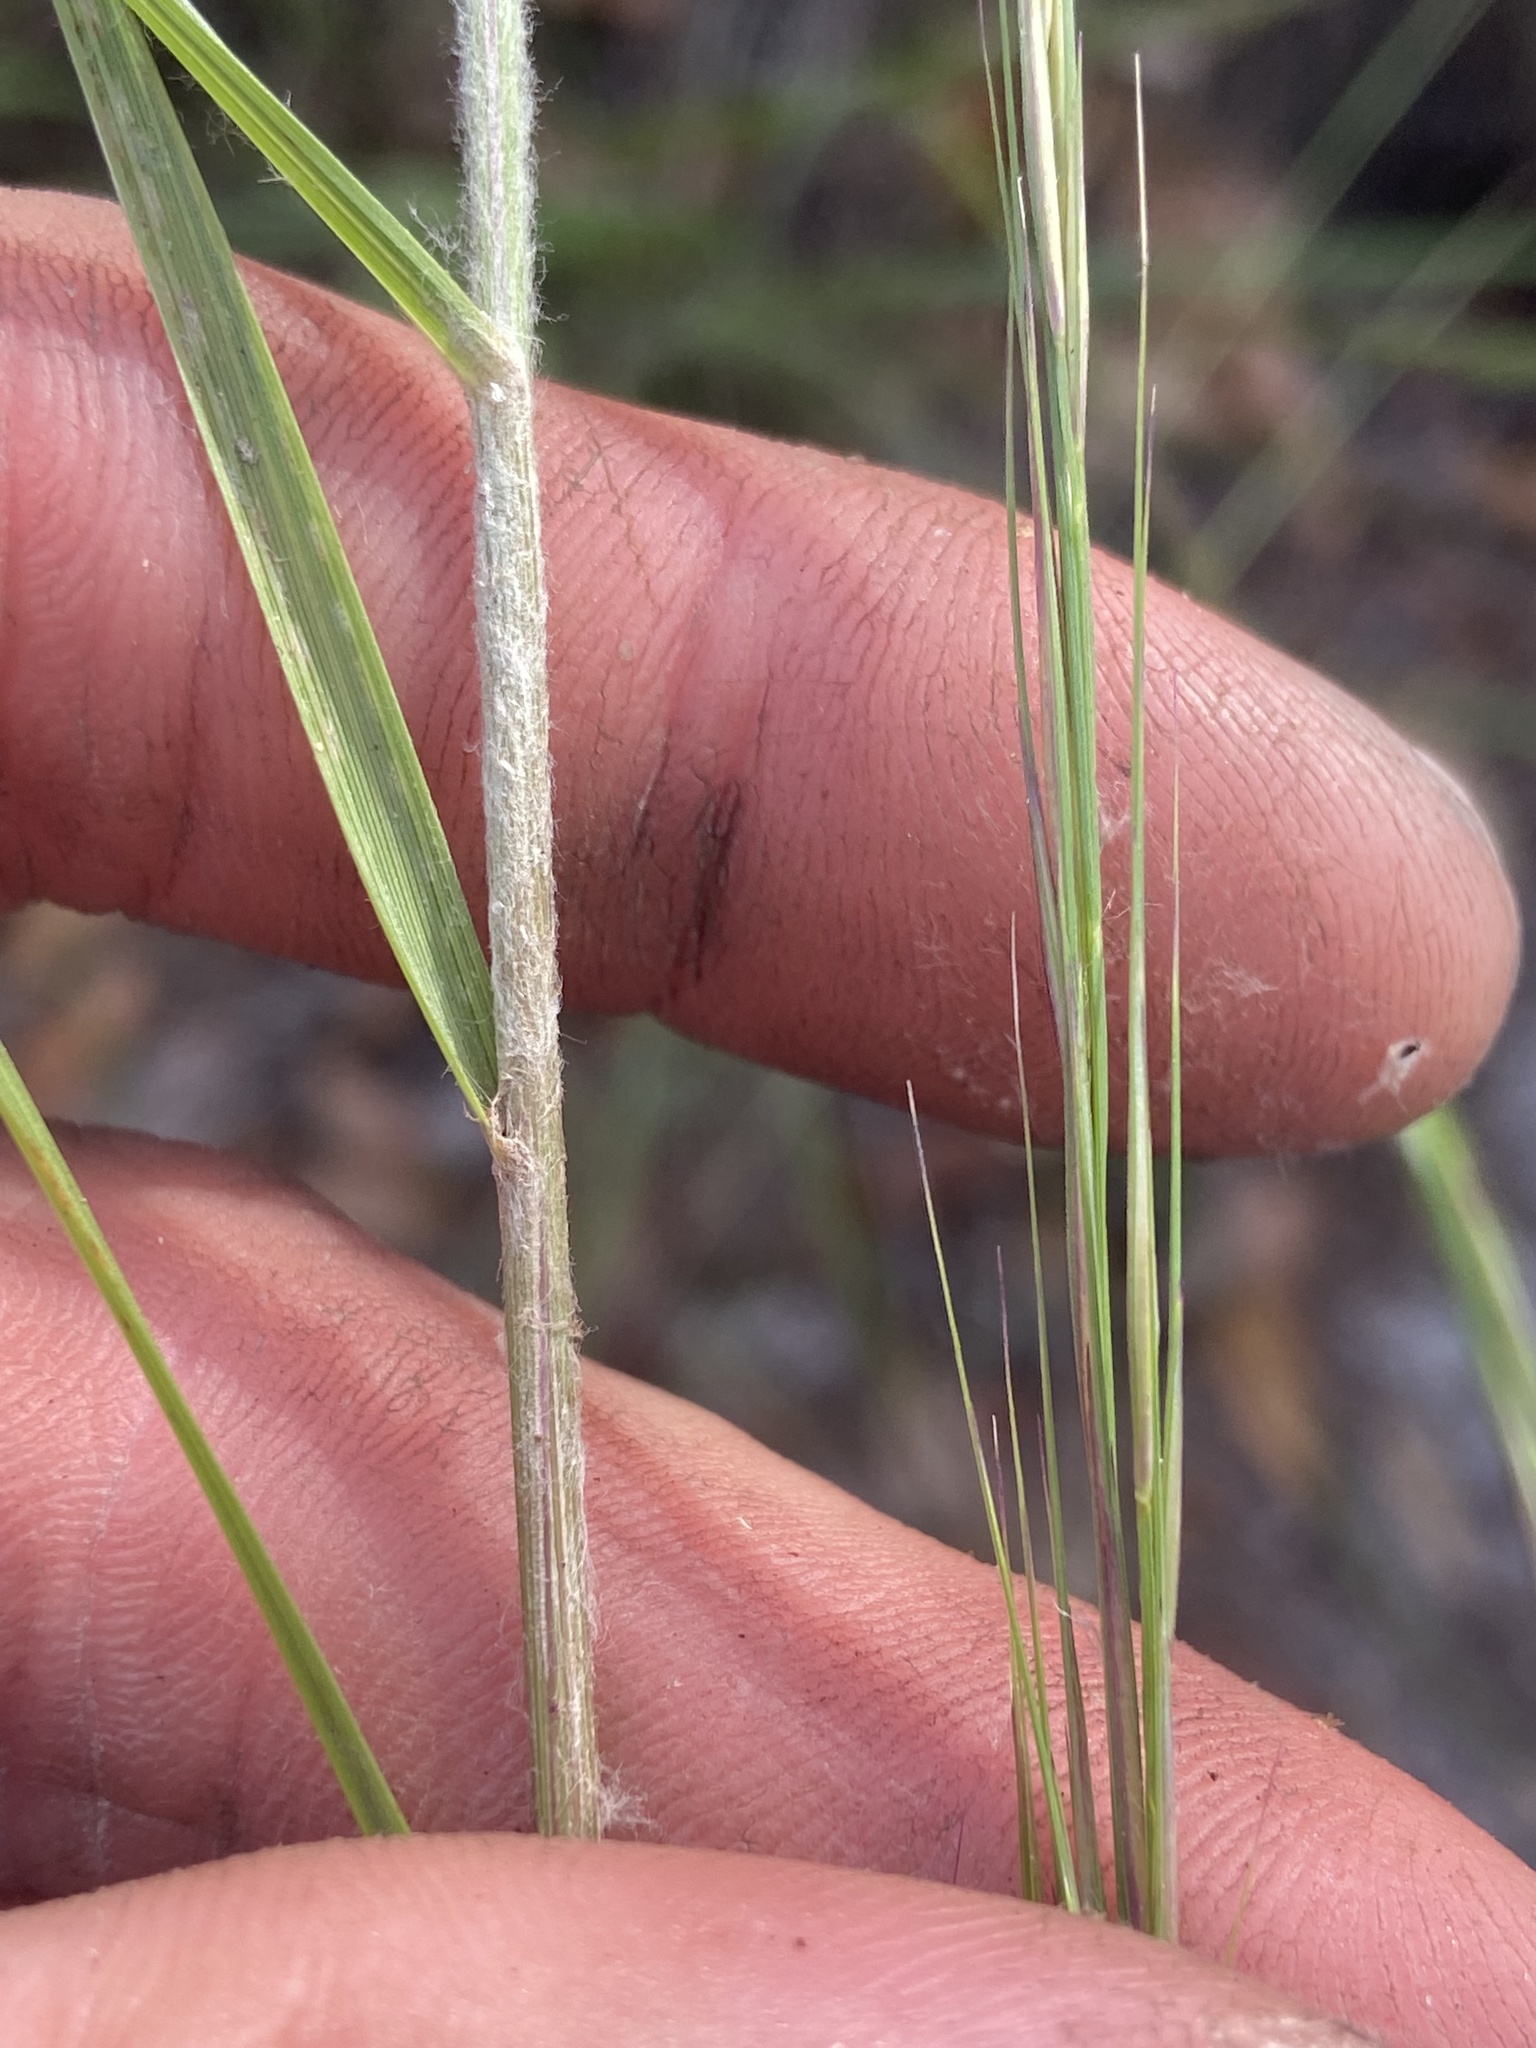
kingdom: Plantae
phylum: Tracheophyta
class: Liliopsida
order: Poales
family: Poaceae
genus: Aristida
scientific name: Aristida lanosa
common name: Woolly three-awn
